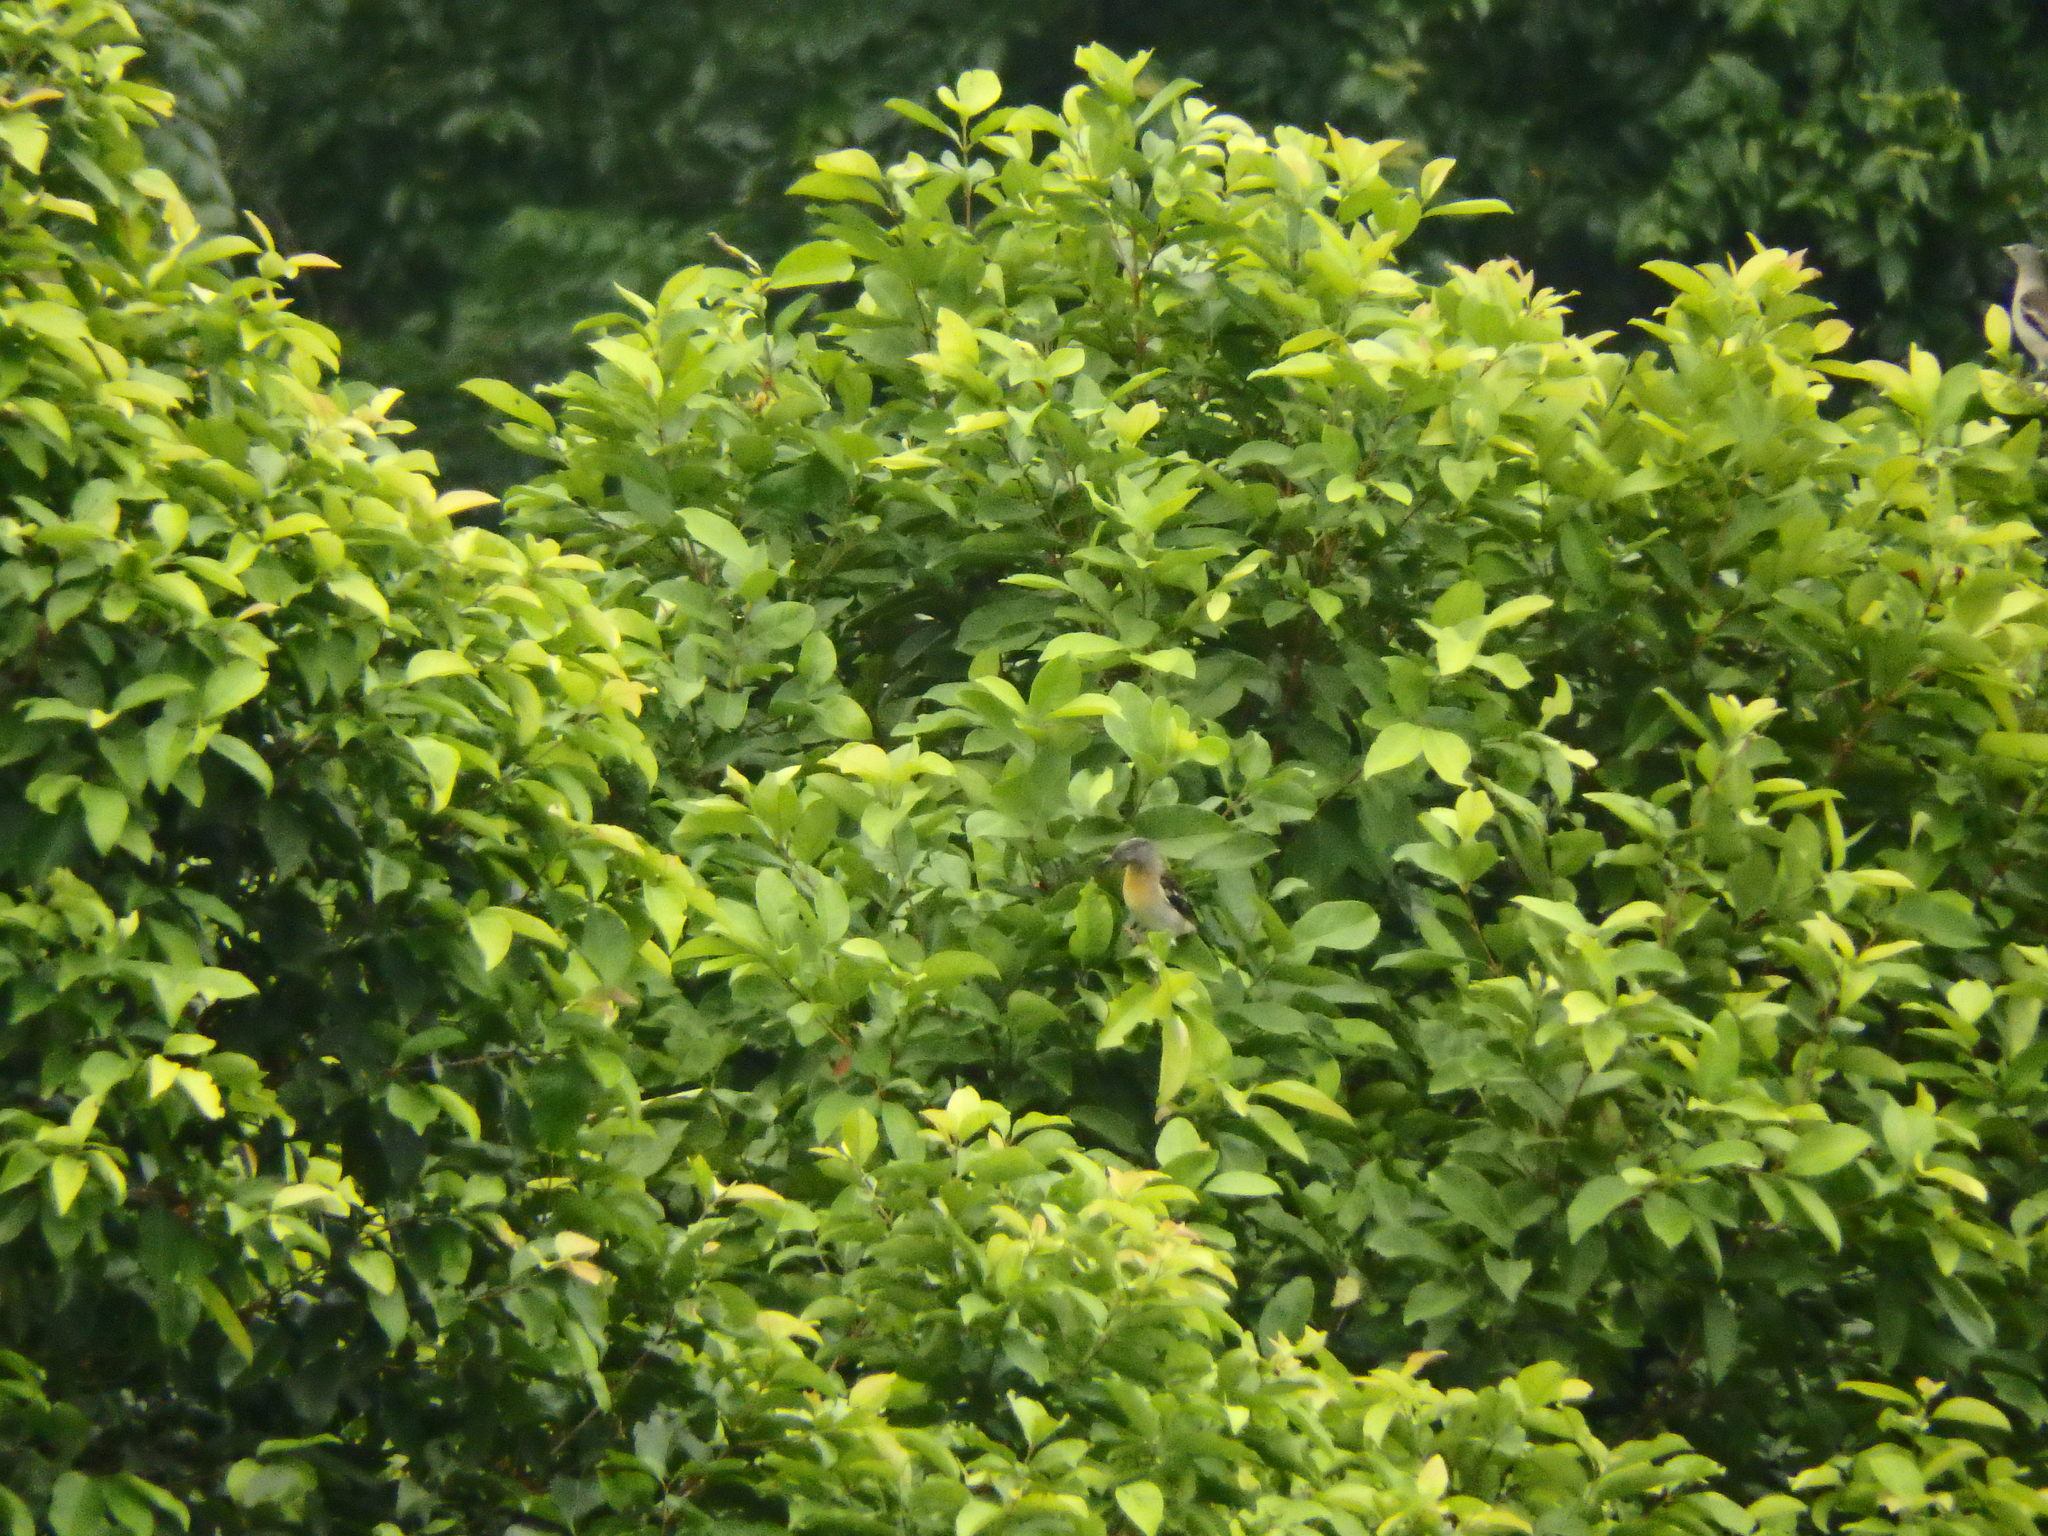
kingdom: Animalia
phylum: Chordata
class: Aves
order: Passeriformes
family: Sturnidae
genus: Agropsar
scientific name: Agropsar sturninus
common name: Daurian starling
